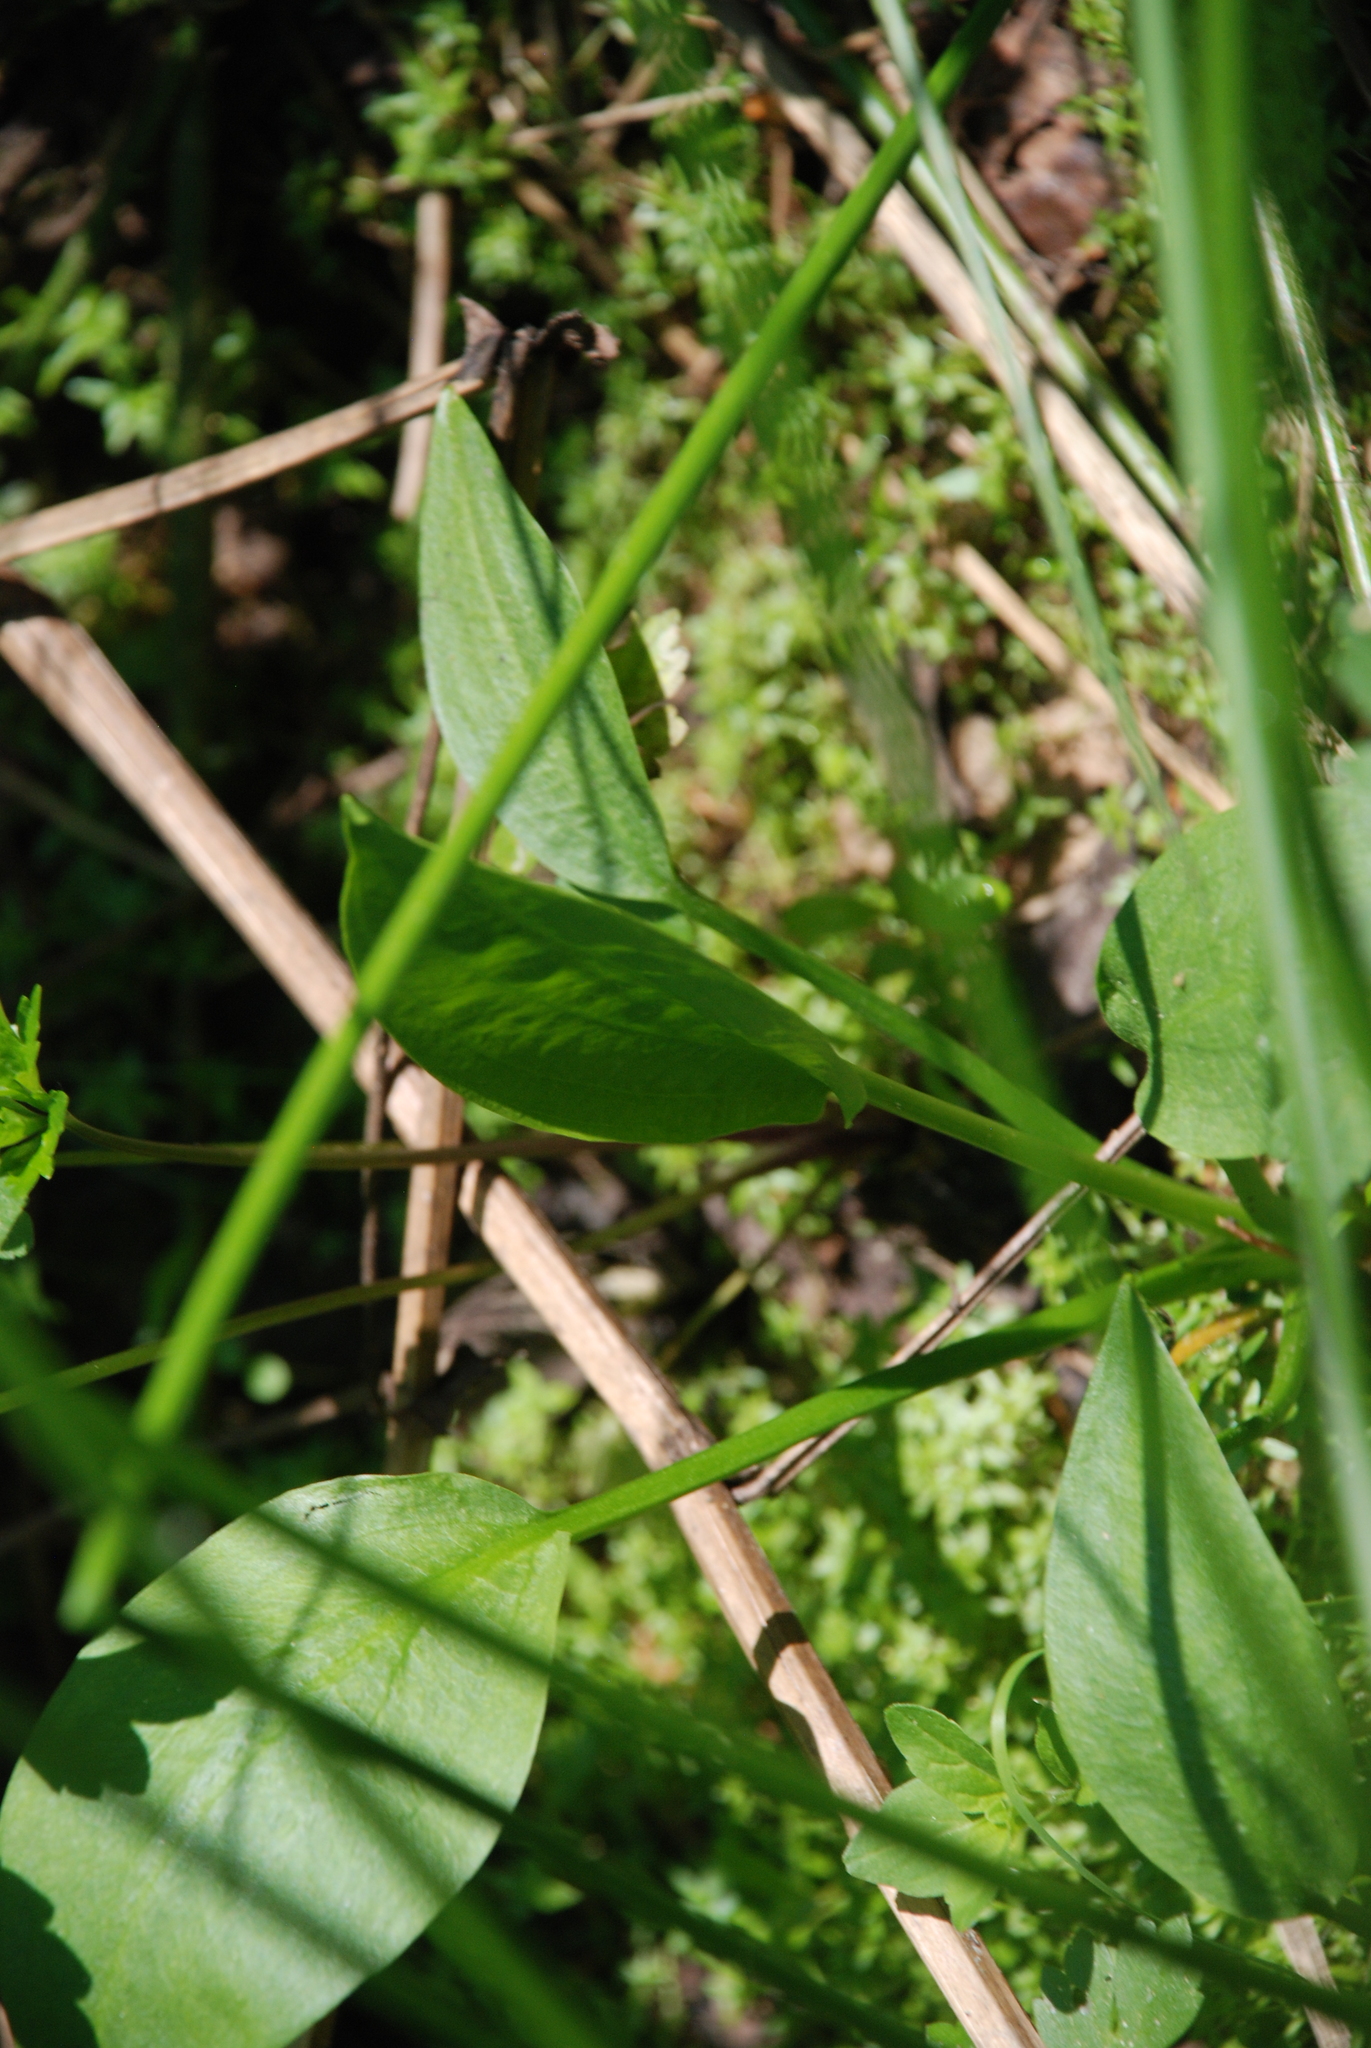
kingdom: Plantae
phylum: Tracheophyta
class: Liliopsida
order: Alismatales
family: Alismataceae
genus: Alisma
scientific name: Alisma plantago-aquatica
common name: Water-plantain
